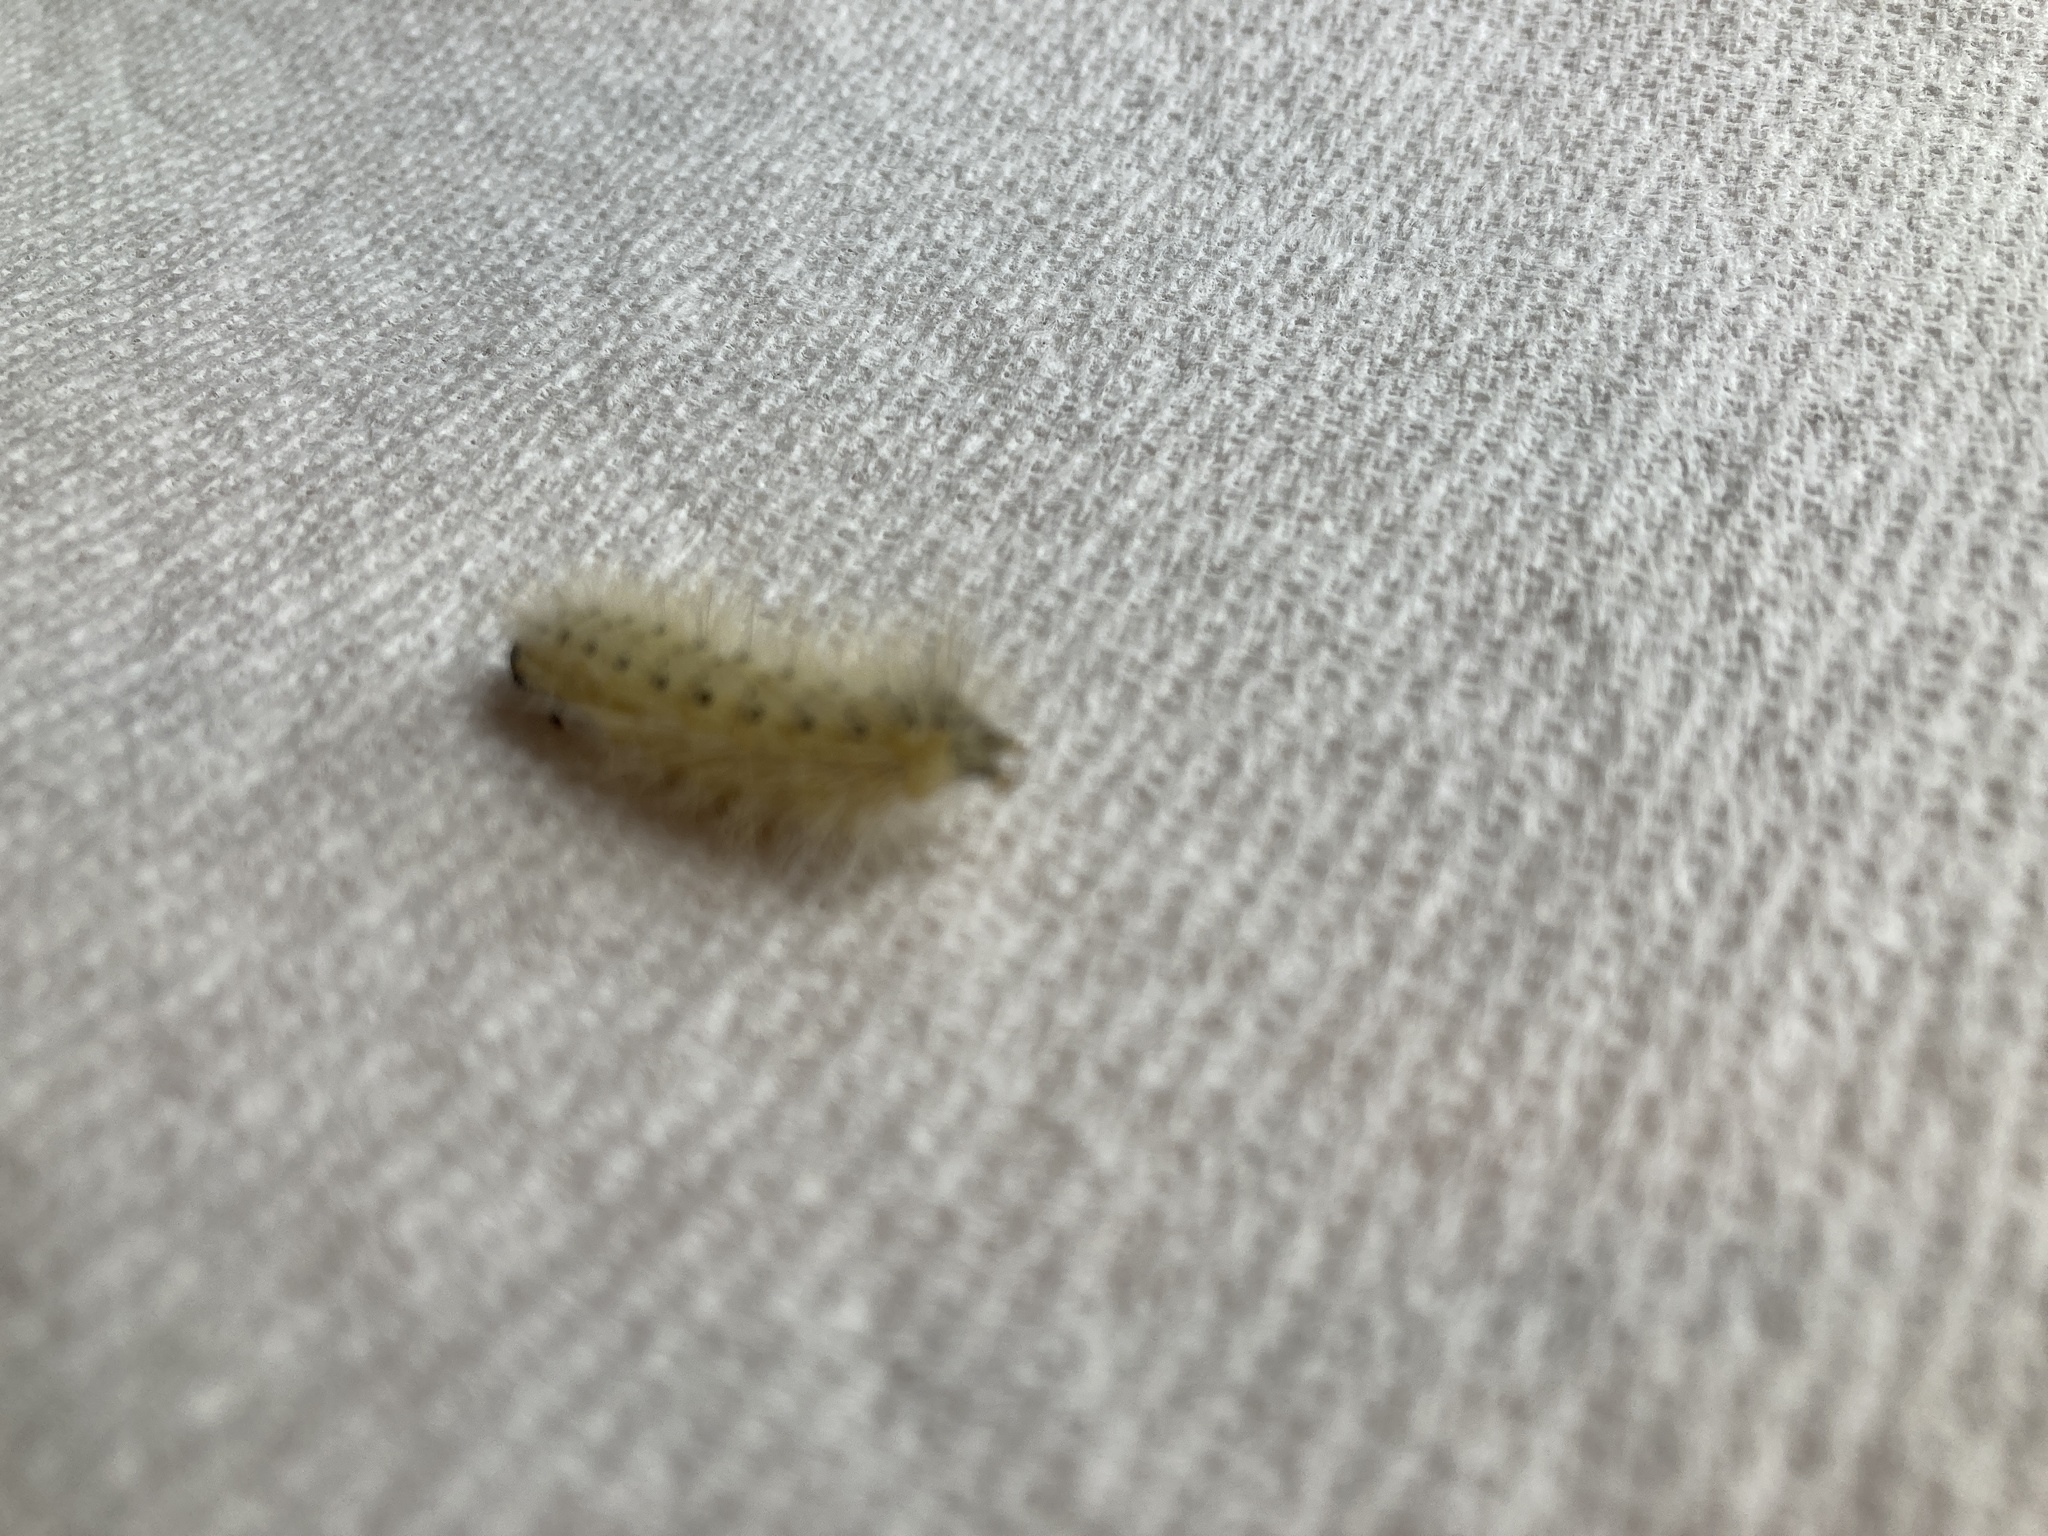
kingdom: Animalia
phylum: Arthropoda
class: Insecta
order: Lepidoptera
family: Erebidae
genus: Hyphantria
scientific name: Hyphantria cunea
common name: American white moth
